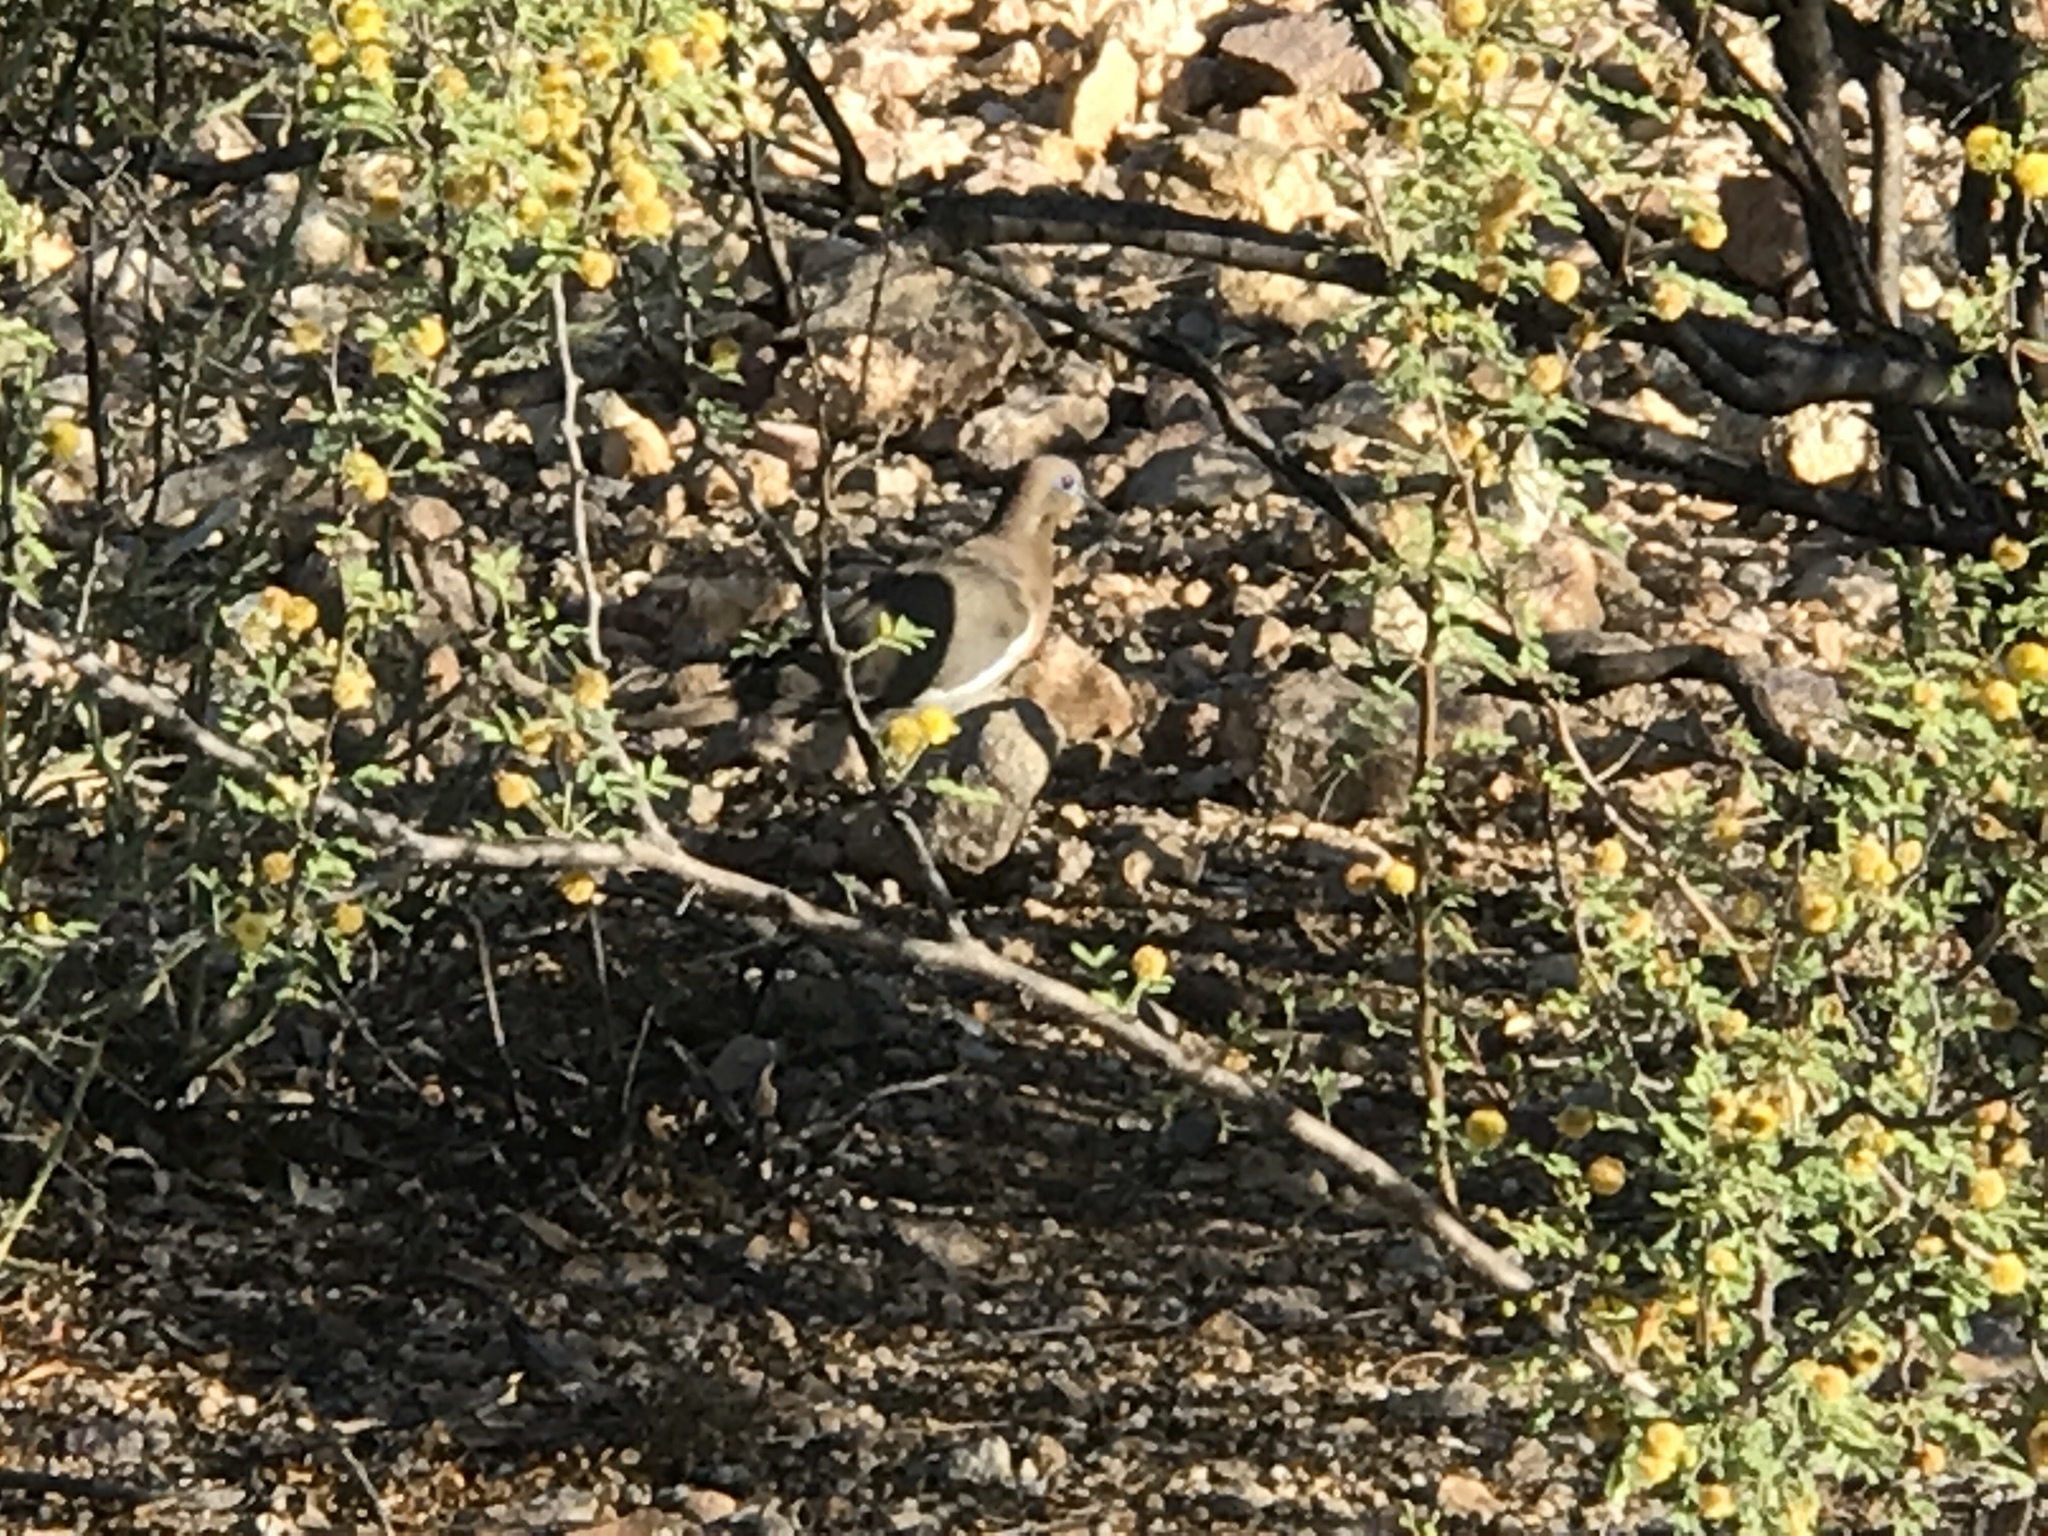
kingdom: Animalia
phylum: Chordata
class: Aves
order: Columbiformes
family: Columbidae
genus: Zenaida
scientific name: Zenaida asiatica
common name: White-winged dove
